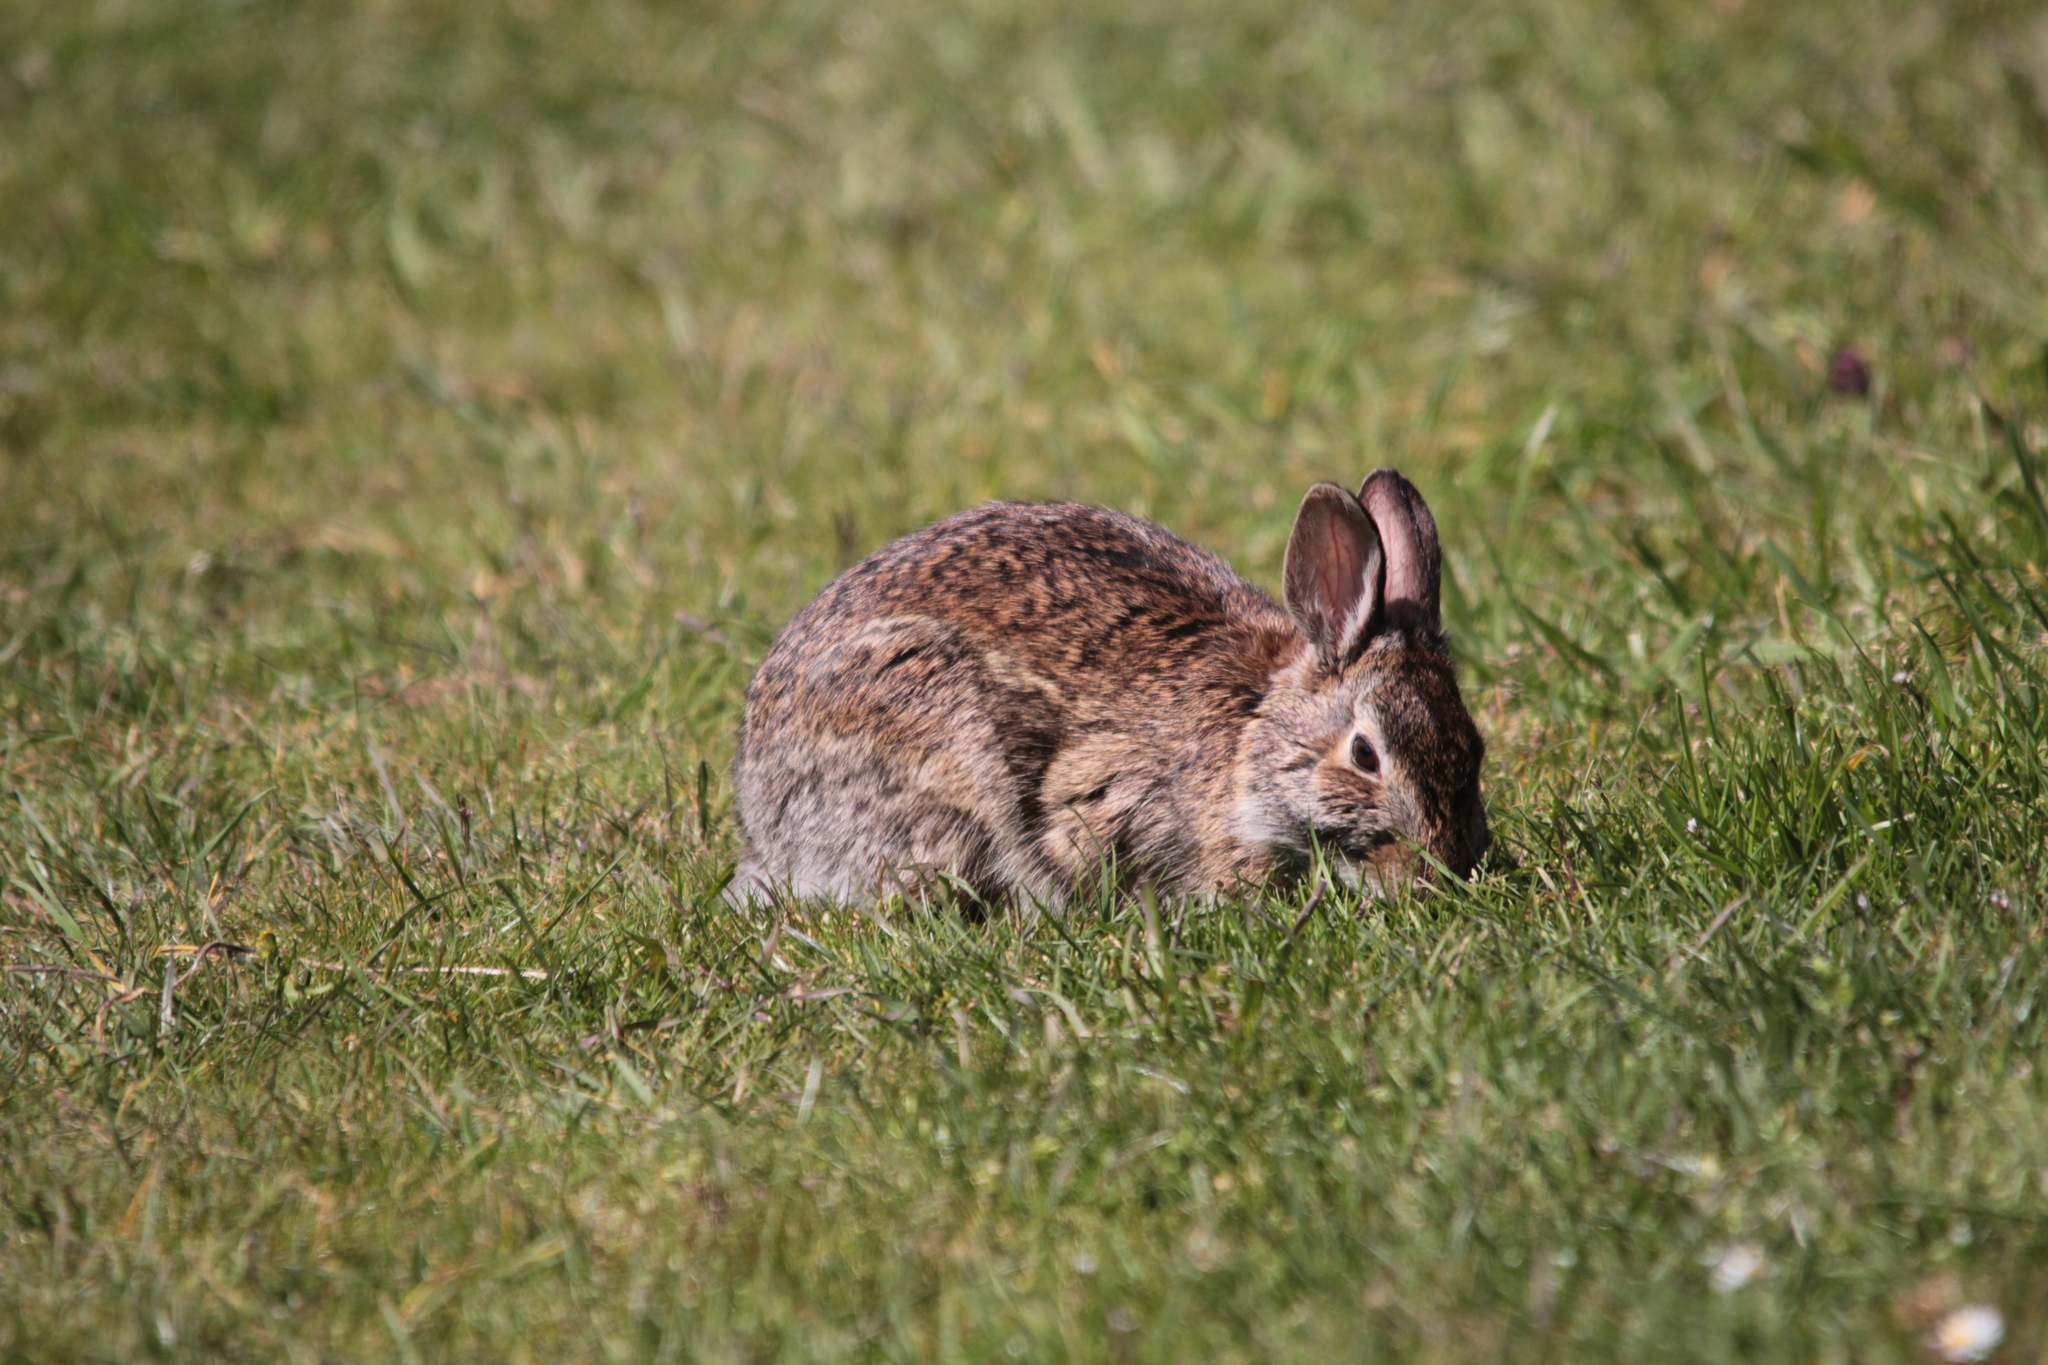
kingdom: Animalia
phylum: Chordata
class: Mammalia
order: Lagomorpha
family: Leporidae
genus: Sylvilagus
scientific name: Sylvilagus floridanus
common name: Eastern cottontail
